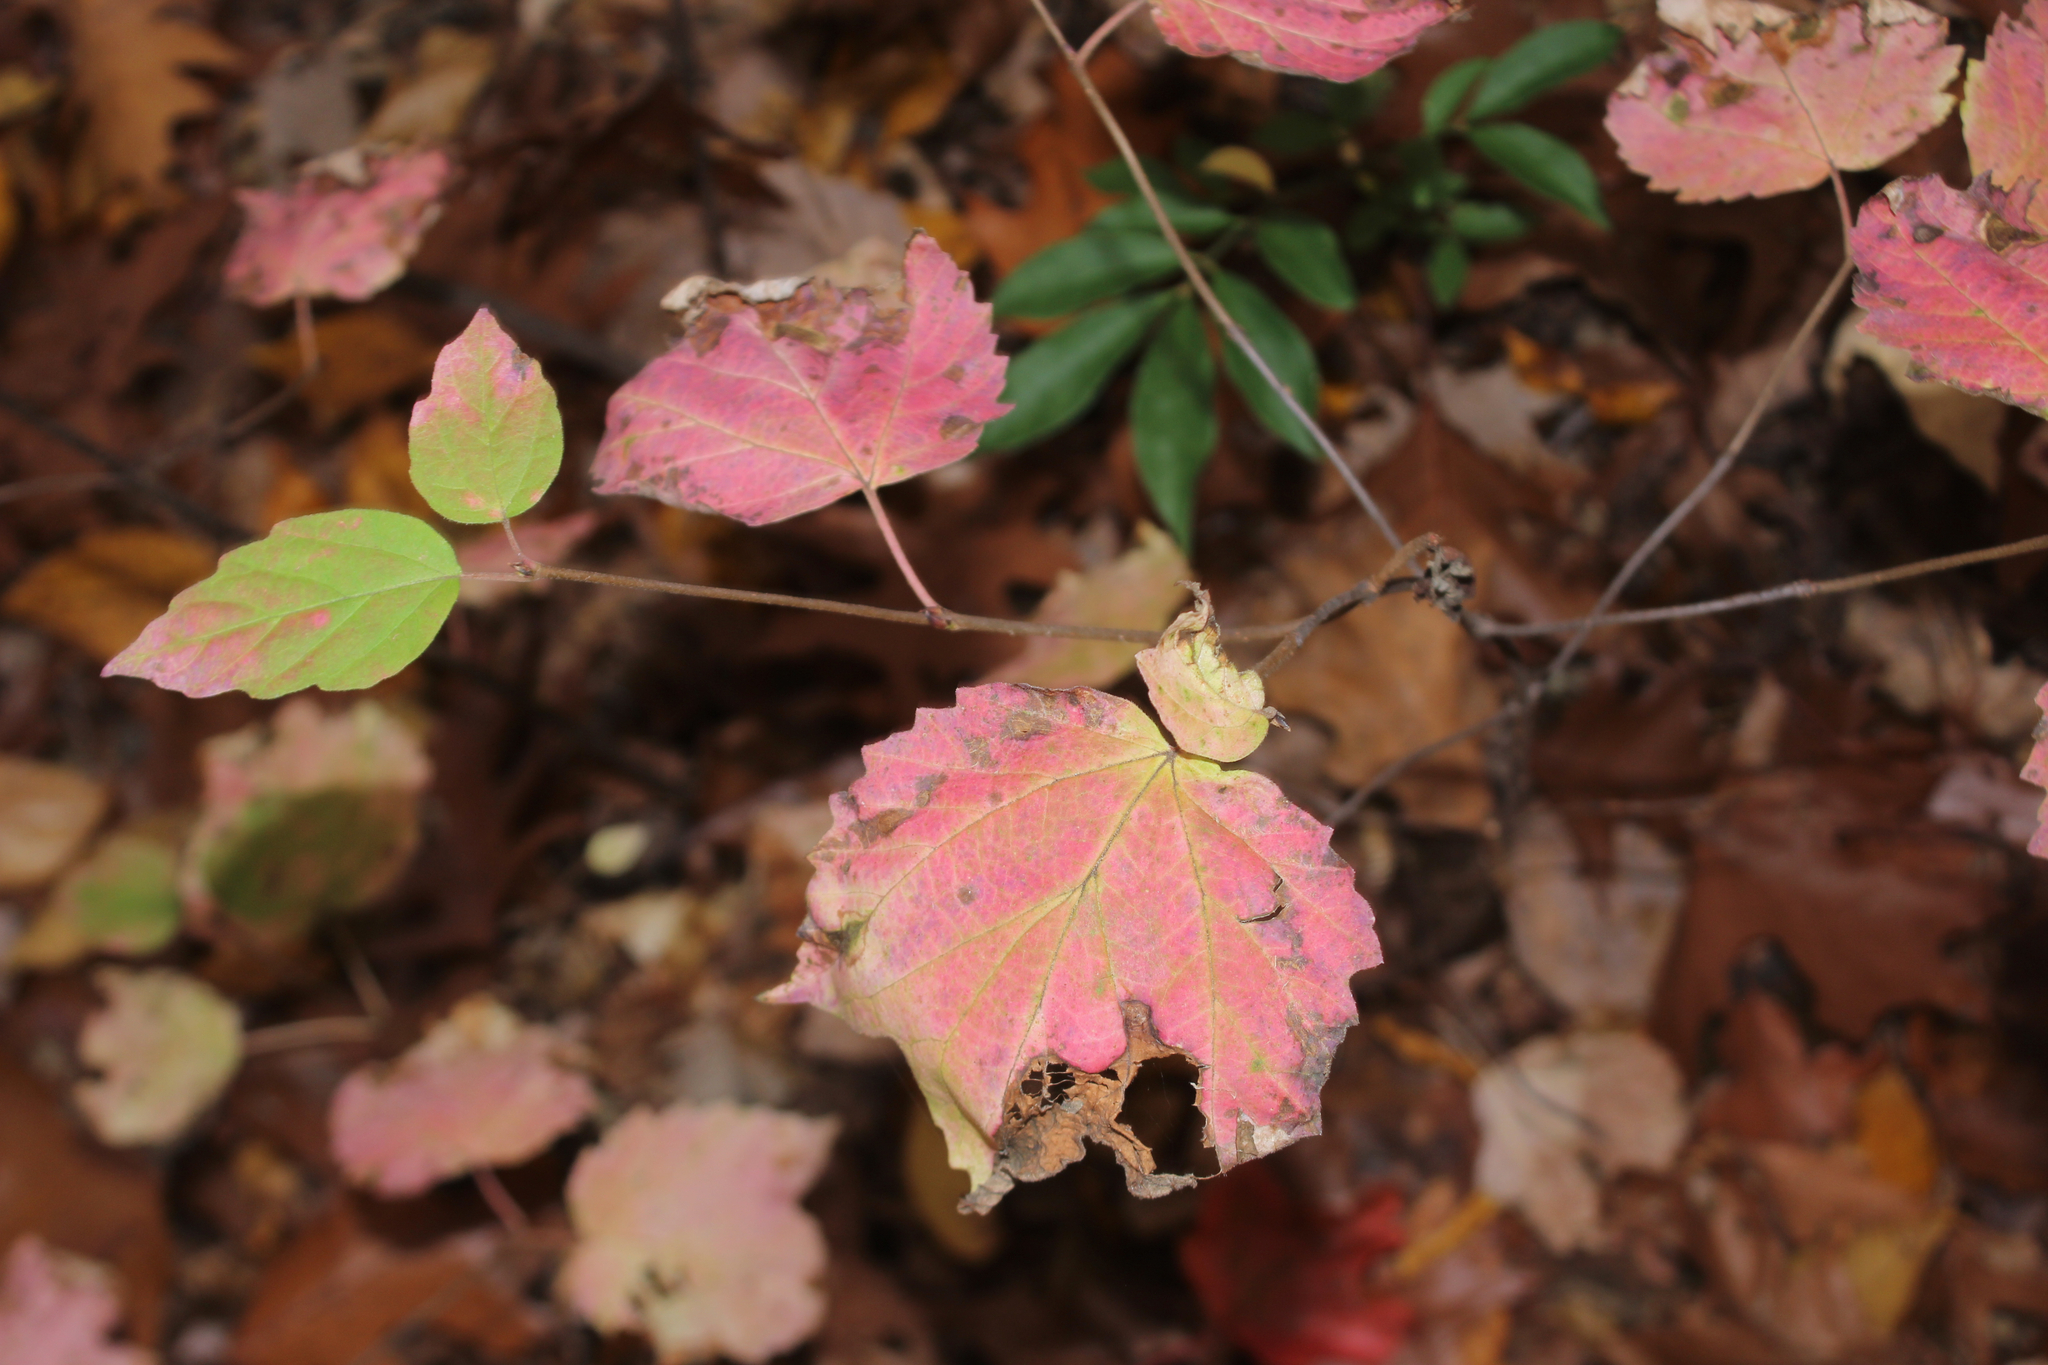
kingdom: Plantae
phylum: Tracheophyta
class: Magnoliopsida
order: Dipsacales
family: Viburnaceae
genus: Viburnum
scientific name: Viburnum acerifolium
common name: Dockmackie
